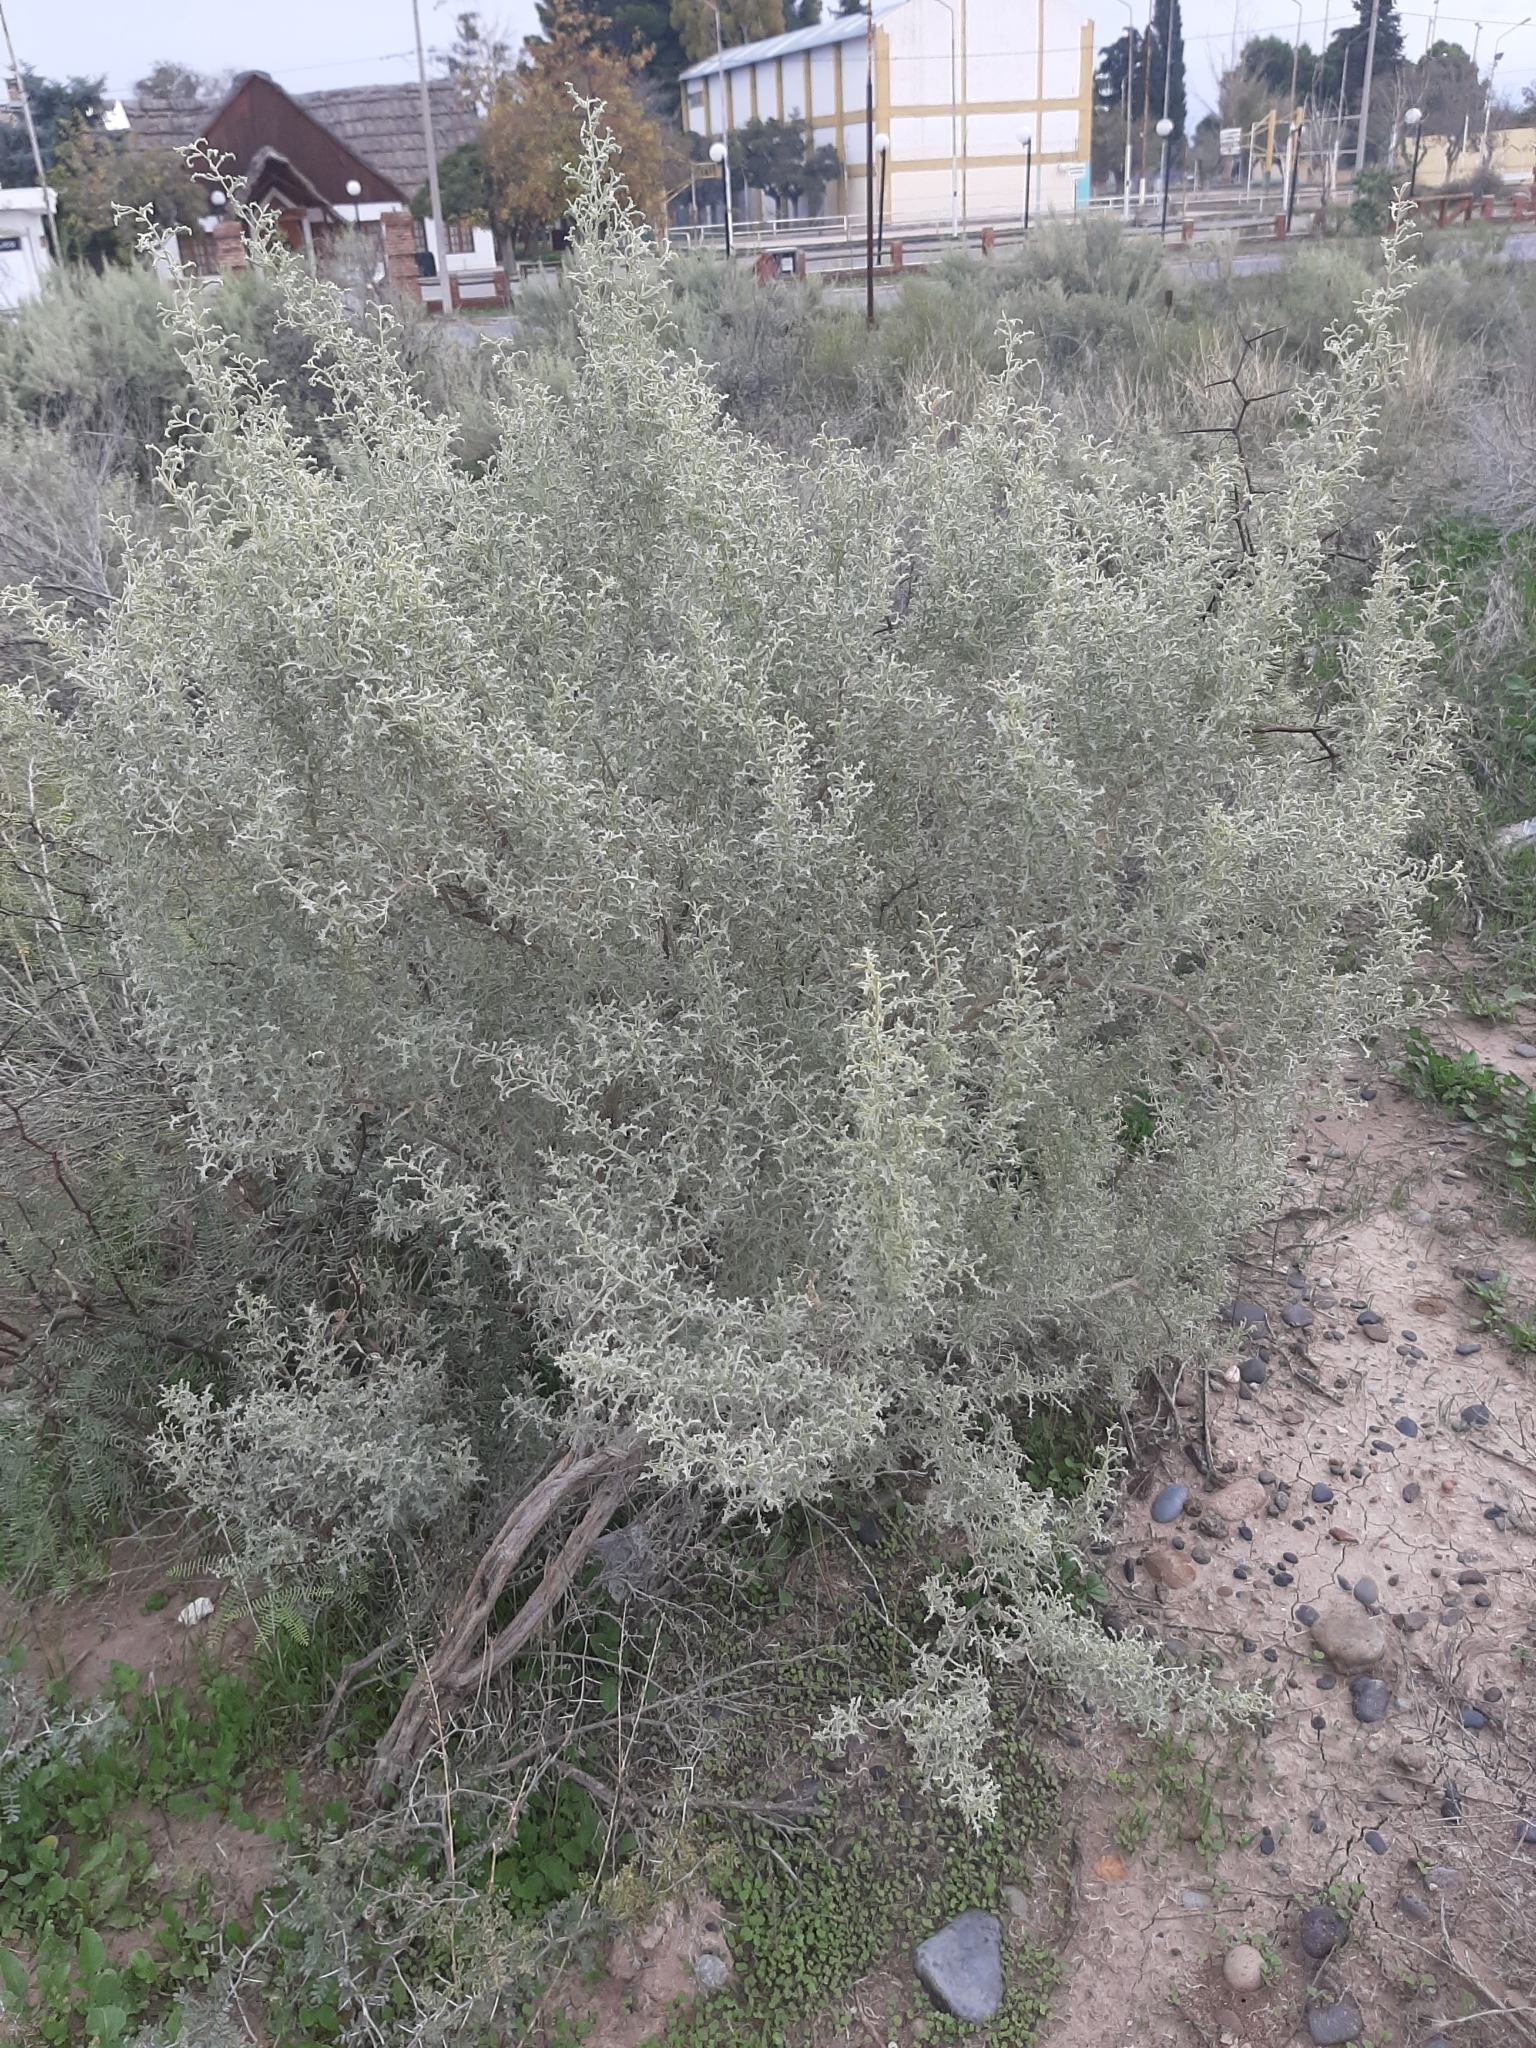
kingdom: Plantae
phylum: Tracheophyta
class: Magnoliopsida
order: Caryophyllales
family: Amaranthaceae
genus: Atriplex
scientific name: Atriplex lampa
